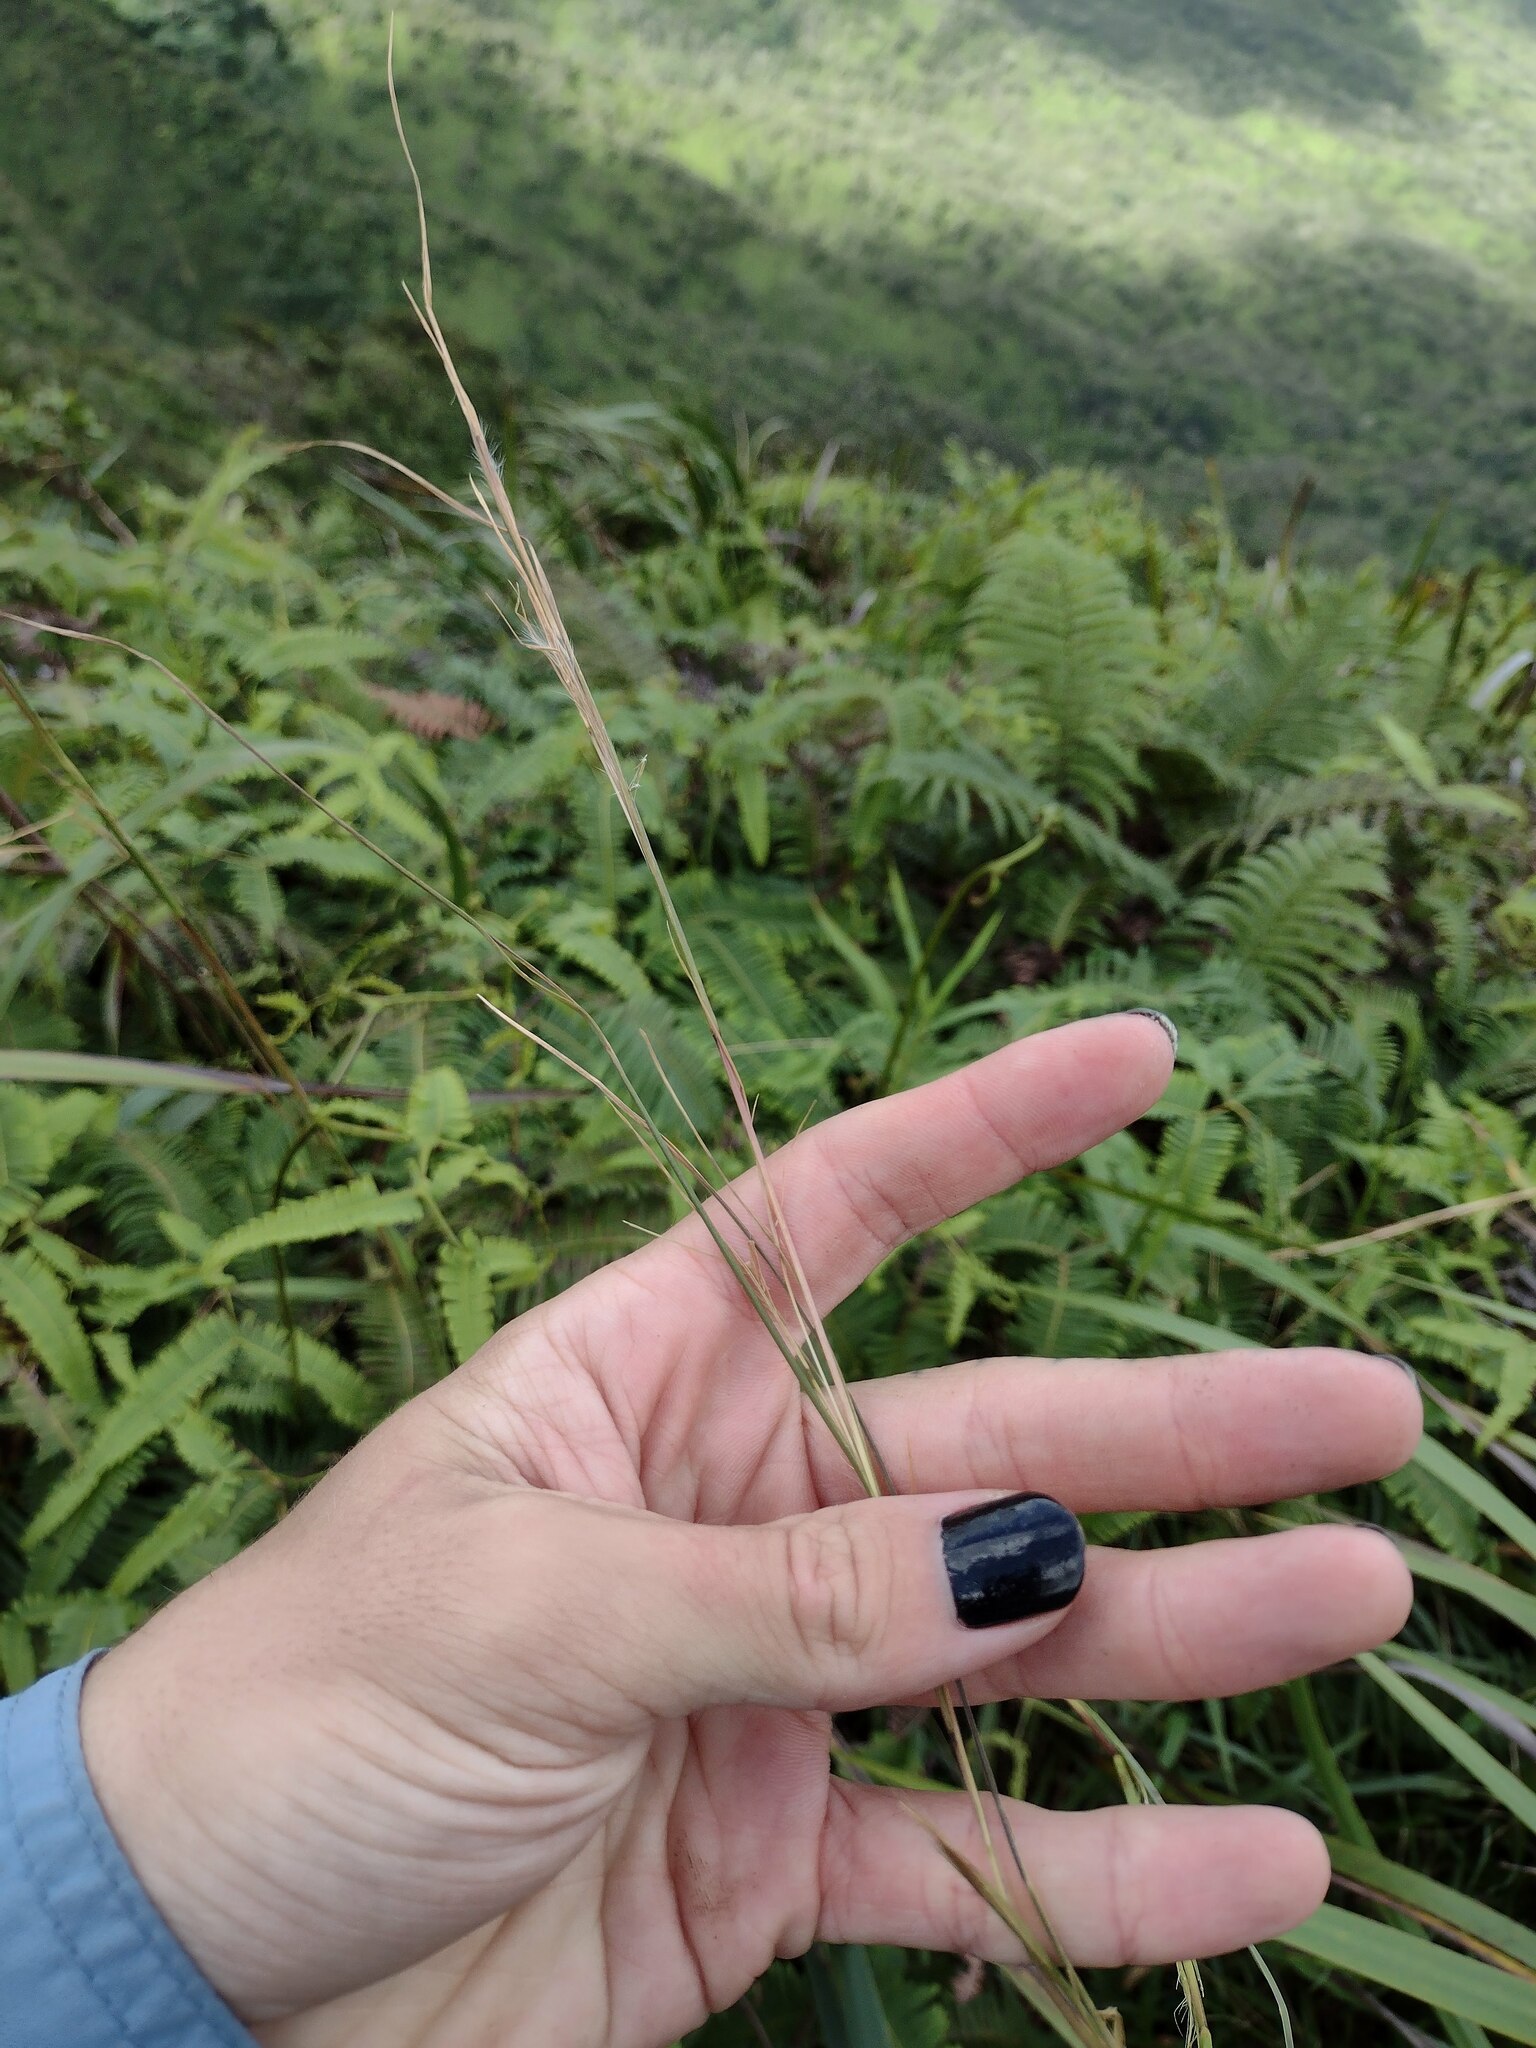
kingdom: Plantae
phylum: Tracheophyta
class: Liliopsida
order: Poales
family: Poaceae
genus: Andropogon
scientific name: Andropogon virginicus
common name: Broomsedge bluestem
